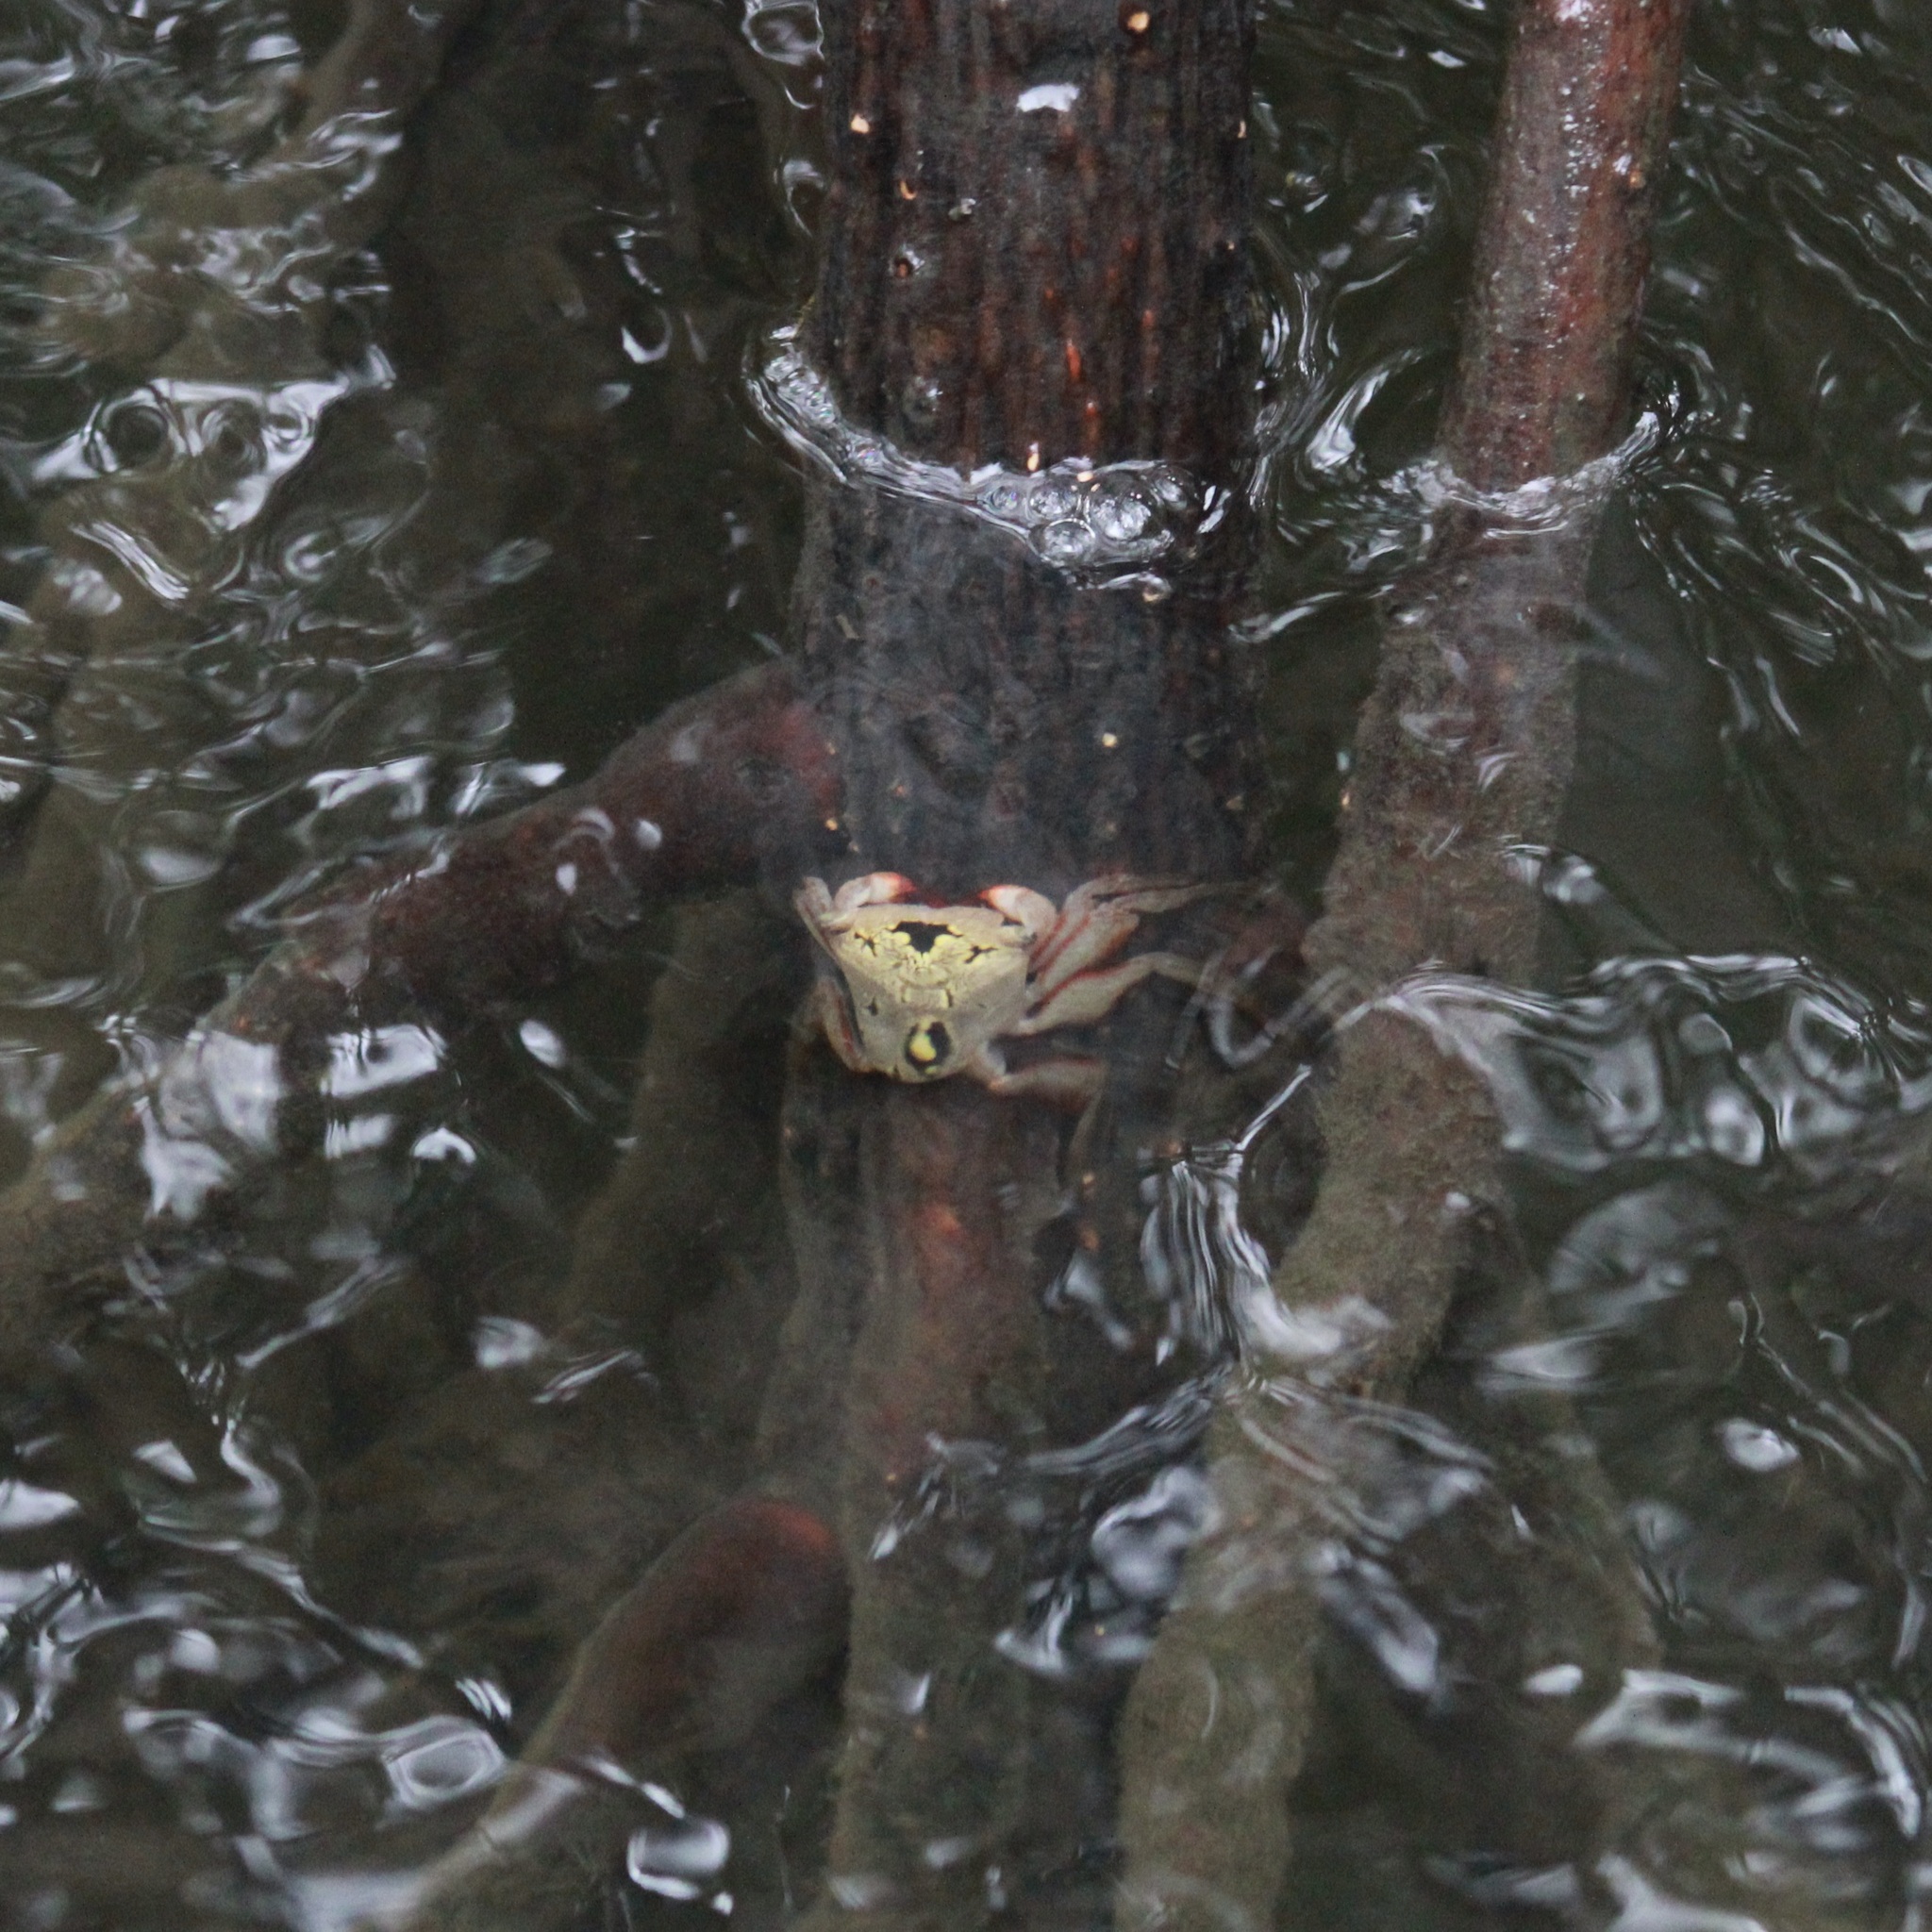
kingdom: Animalia
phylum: Arthropoda
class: Malacostraca
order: Decapoda
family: Sesarmidae
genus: Aratus
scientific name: Aratus pisonii
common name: Mangrove crab
